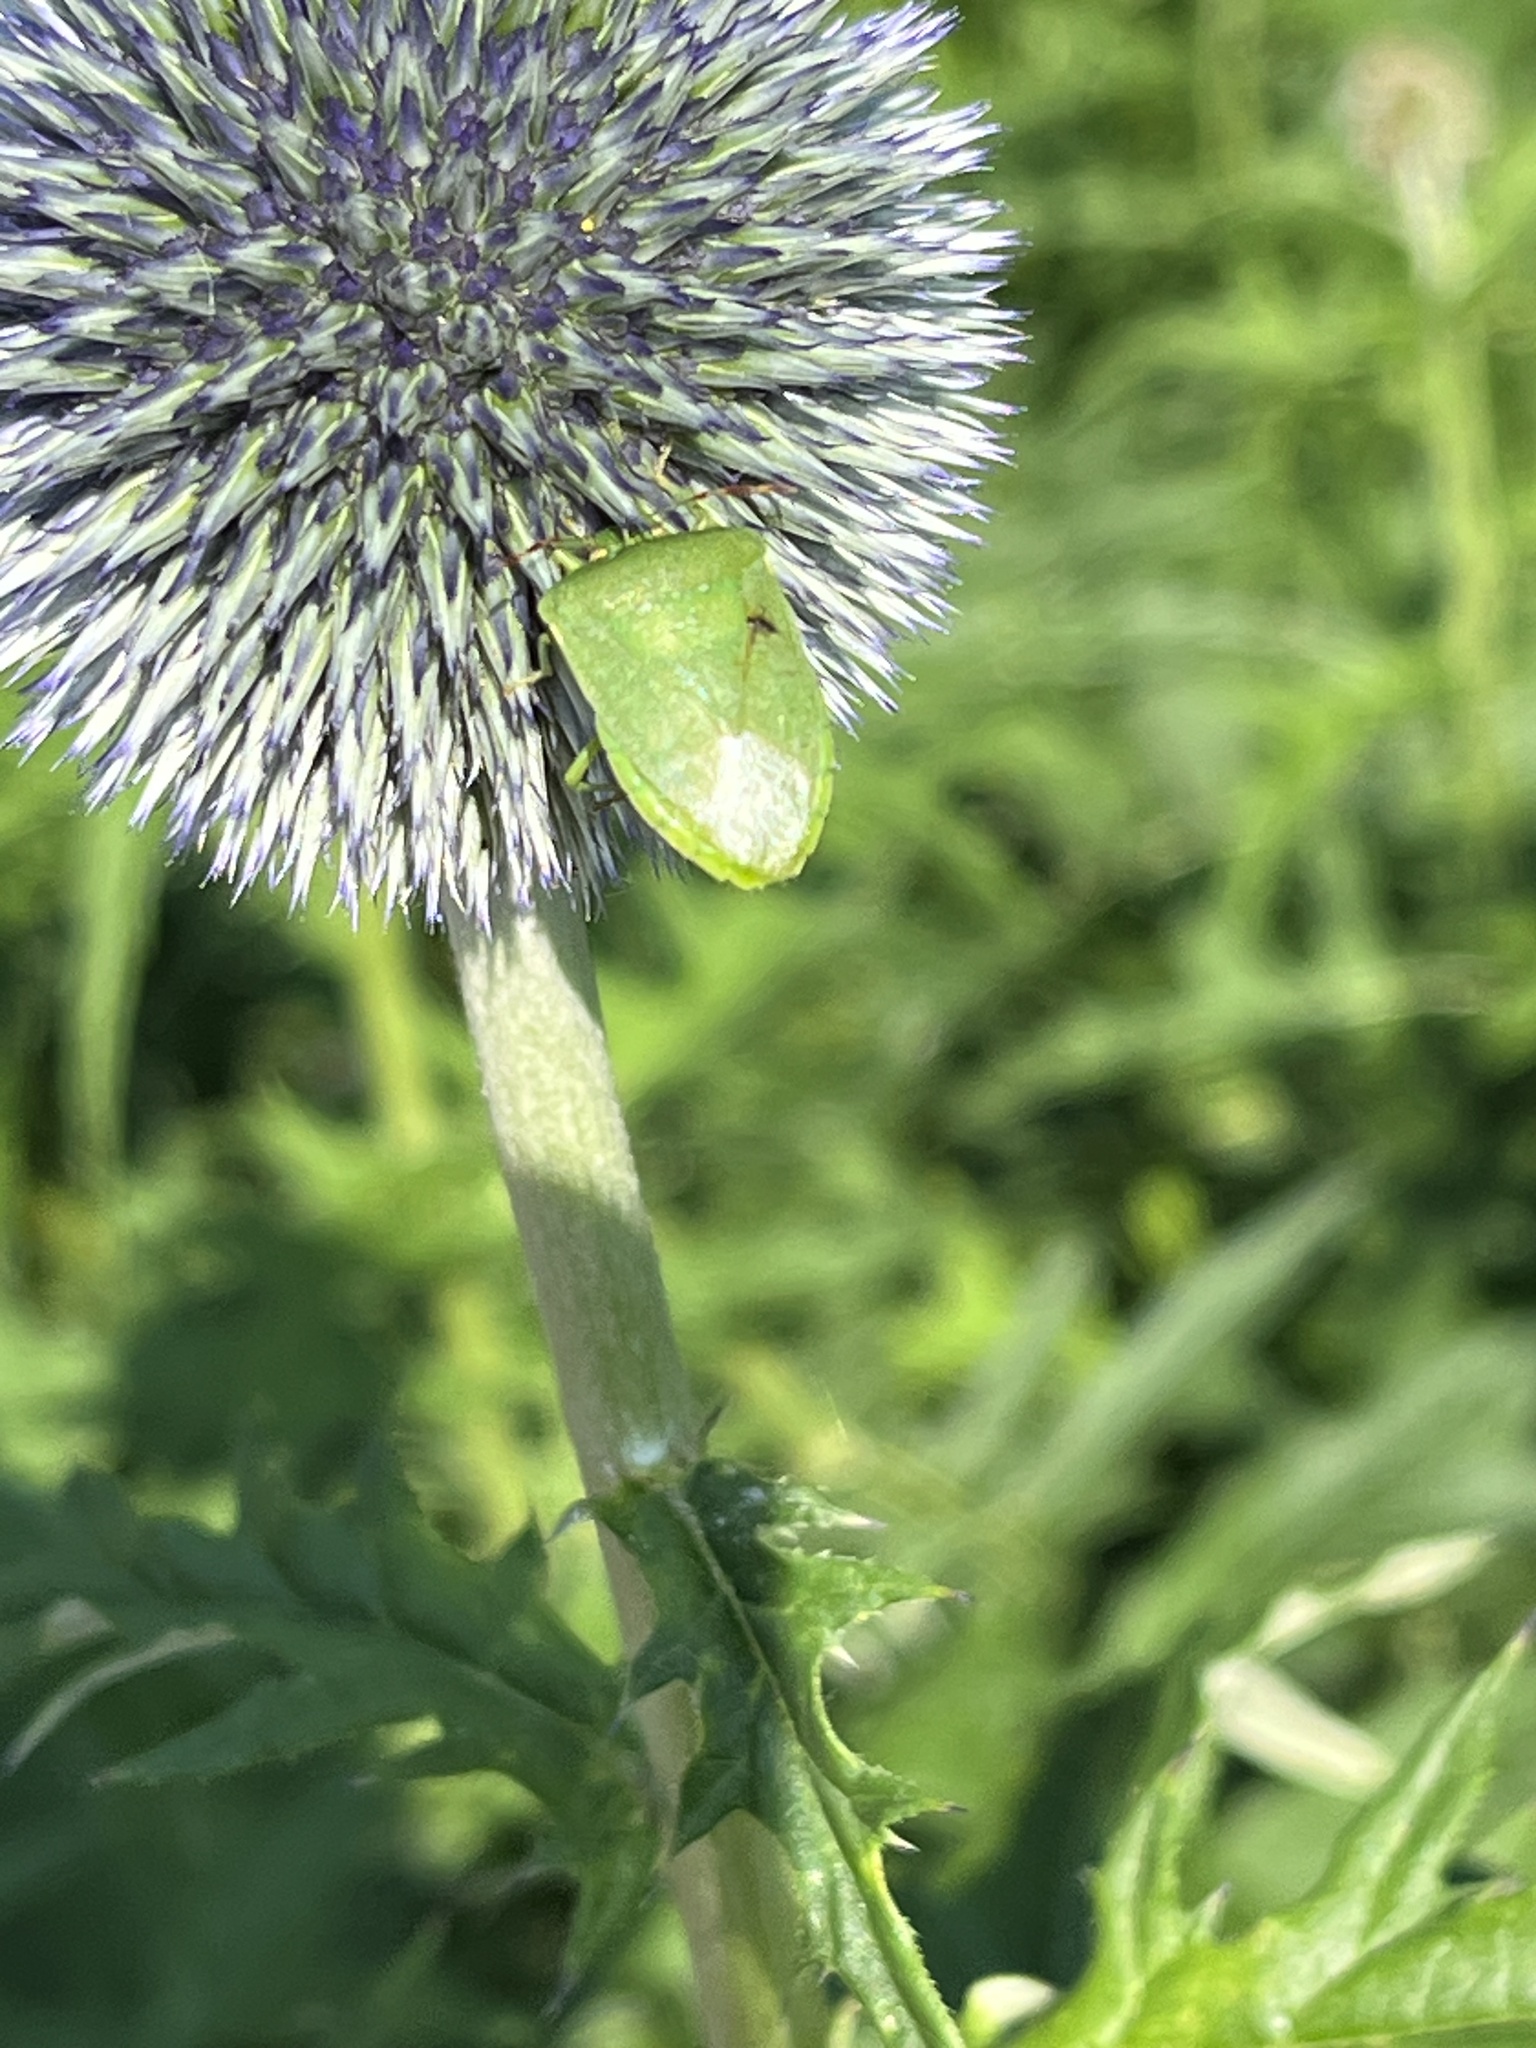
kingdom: Animalia
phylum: Arthropoda
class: Insecta
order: Hemiptera
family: Pentatomidae
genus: Nezara
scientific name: Nezara viridula
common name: Southern green stink bug
